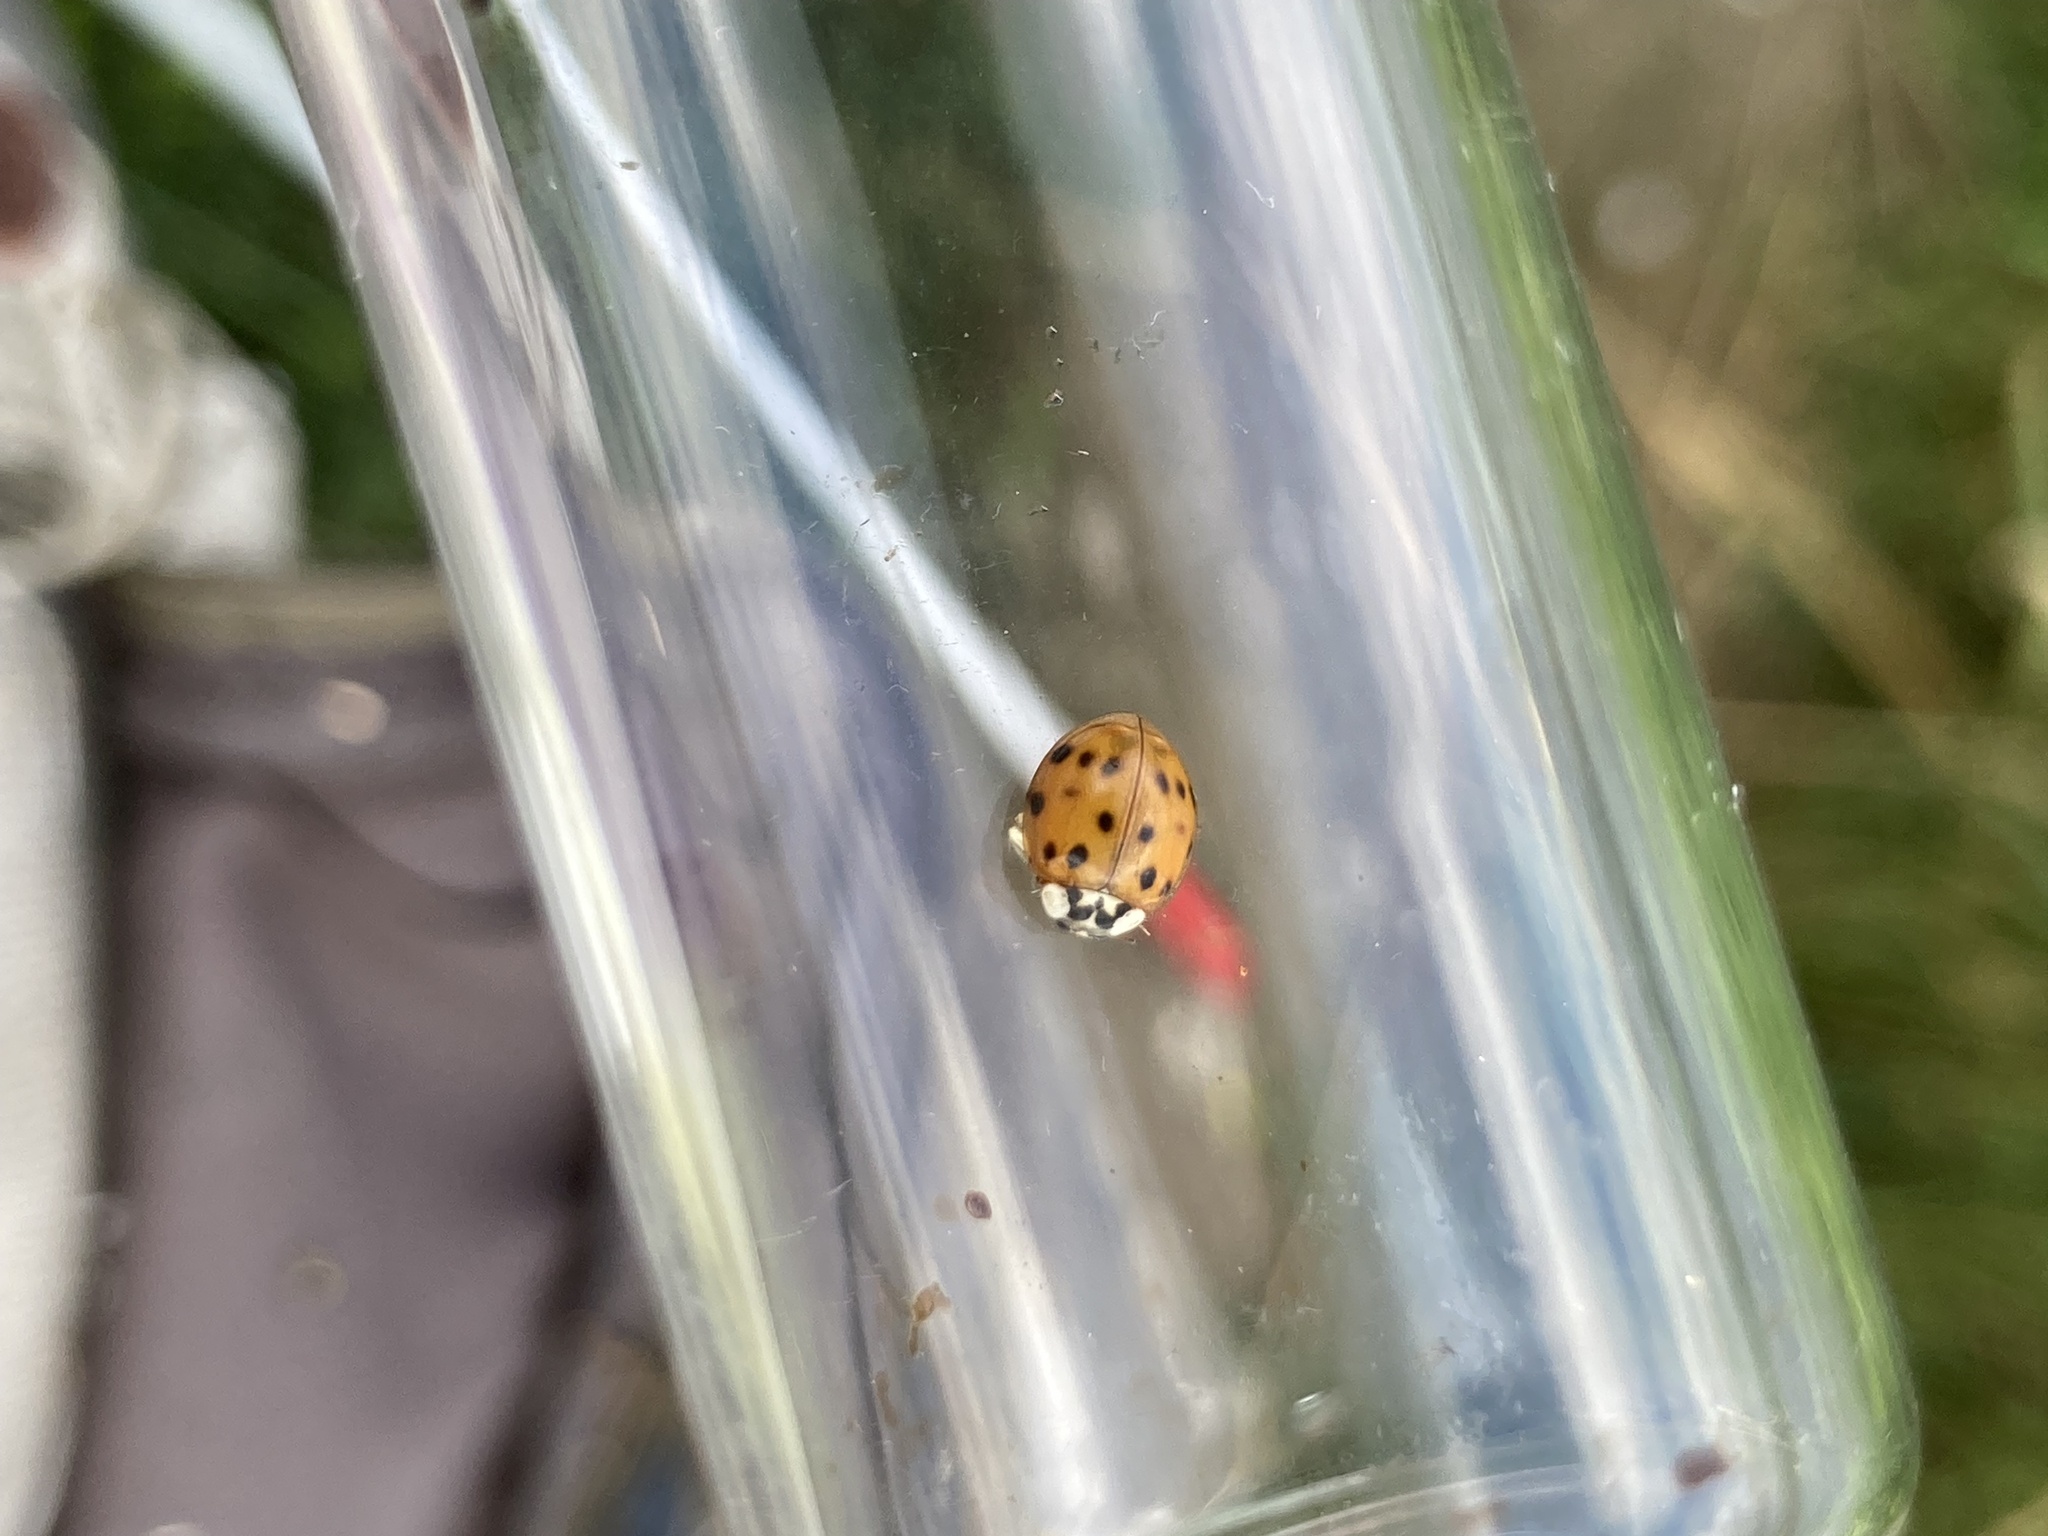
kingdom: Animalia
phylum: Arthropoda
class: Insecta
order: Coleoptera
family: Coccinellidae
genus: Harmonia
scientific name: Harmonia axyridis
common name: Harlequin ladybird
